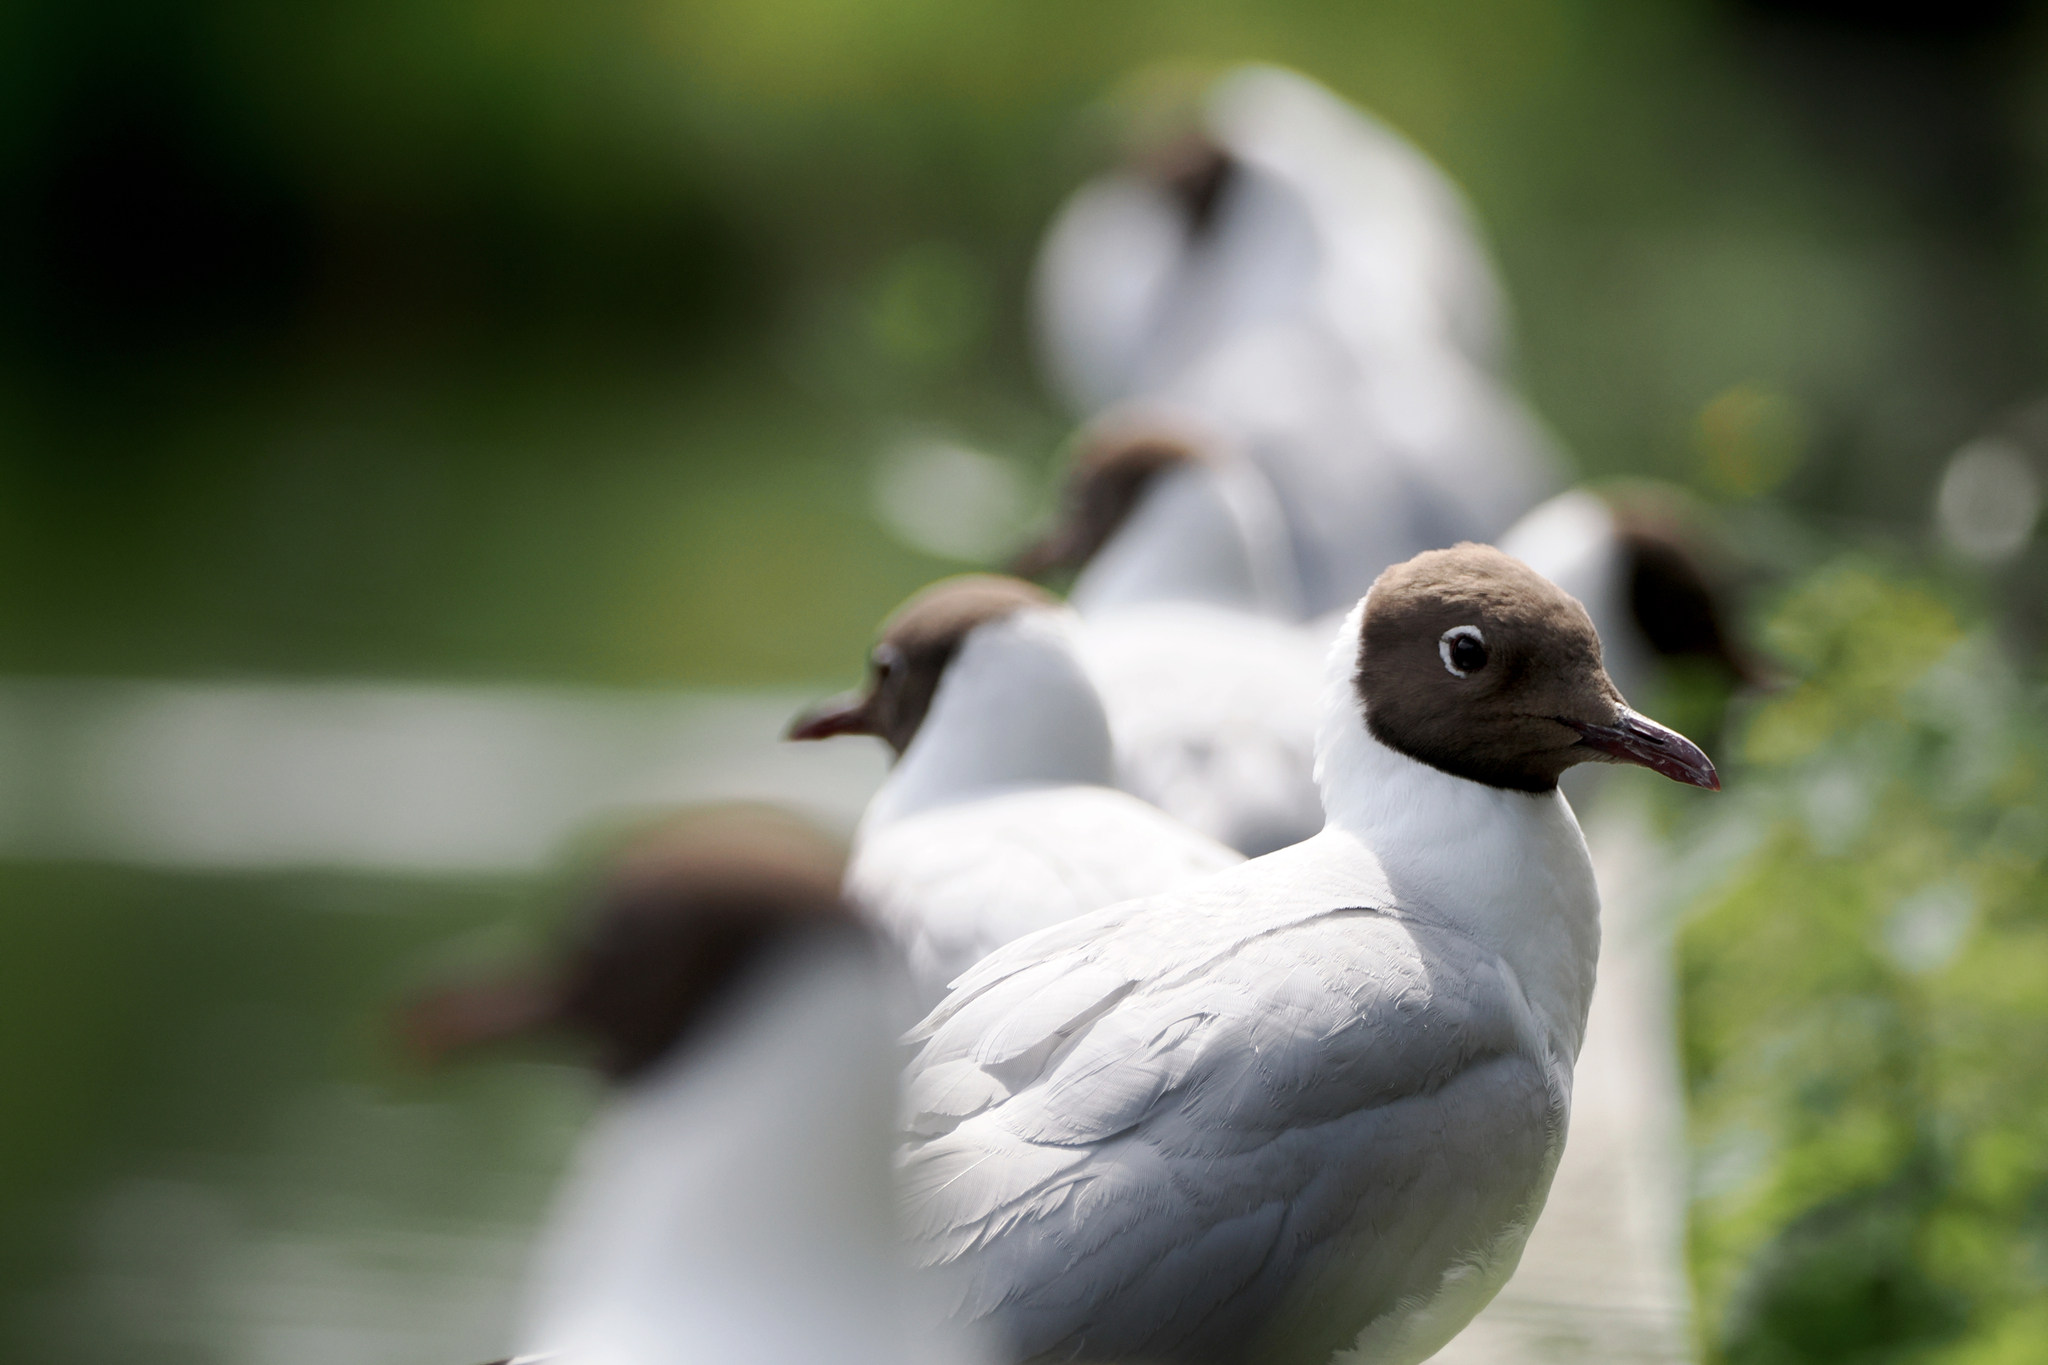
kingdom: Animalia
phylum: Chordata
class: Aves
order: Charadriiformes
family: Laridae
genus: Chroicocephalus
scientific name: Chroicocephalus ridibundus
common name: Black-headed gull
